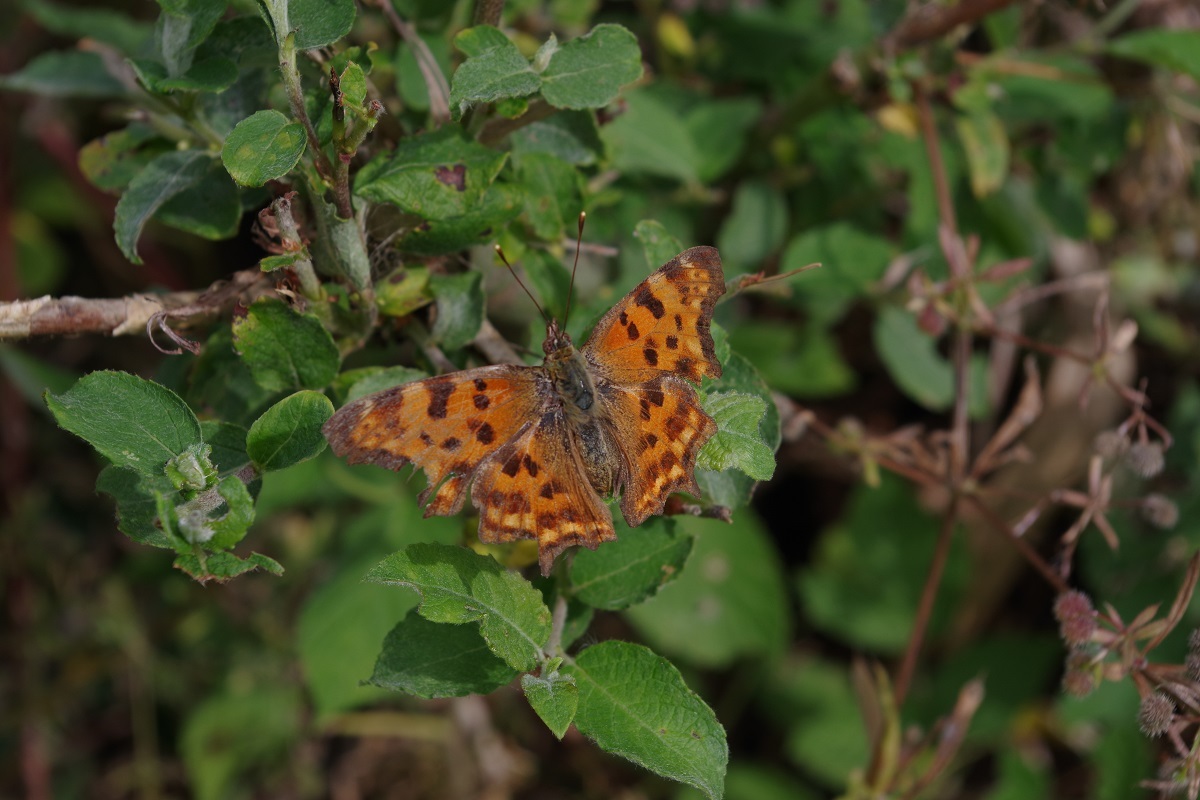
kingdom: Animalia
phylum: Arthropoda
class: Insecta
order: Lepidoptera
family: Nymphalidae
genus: Polygonia
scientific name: Polygonia c-album
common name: Comma
